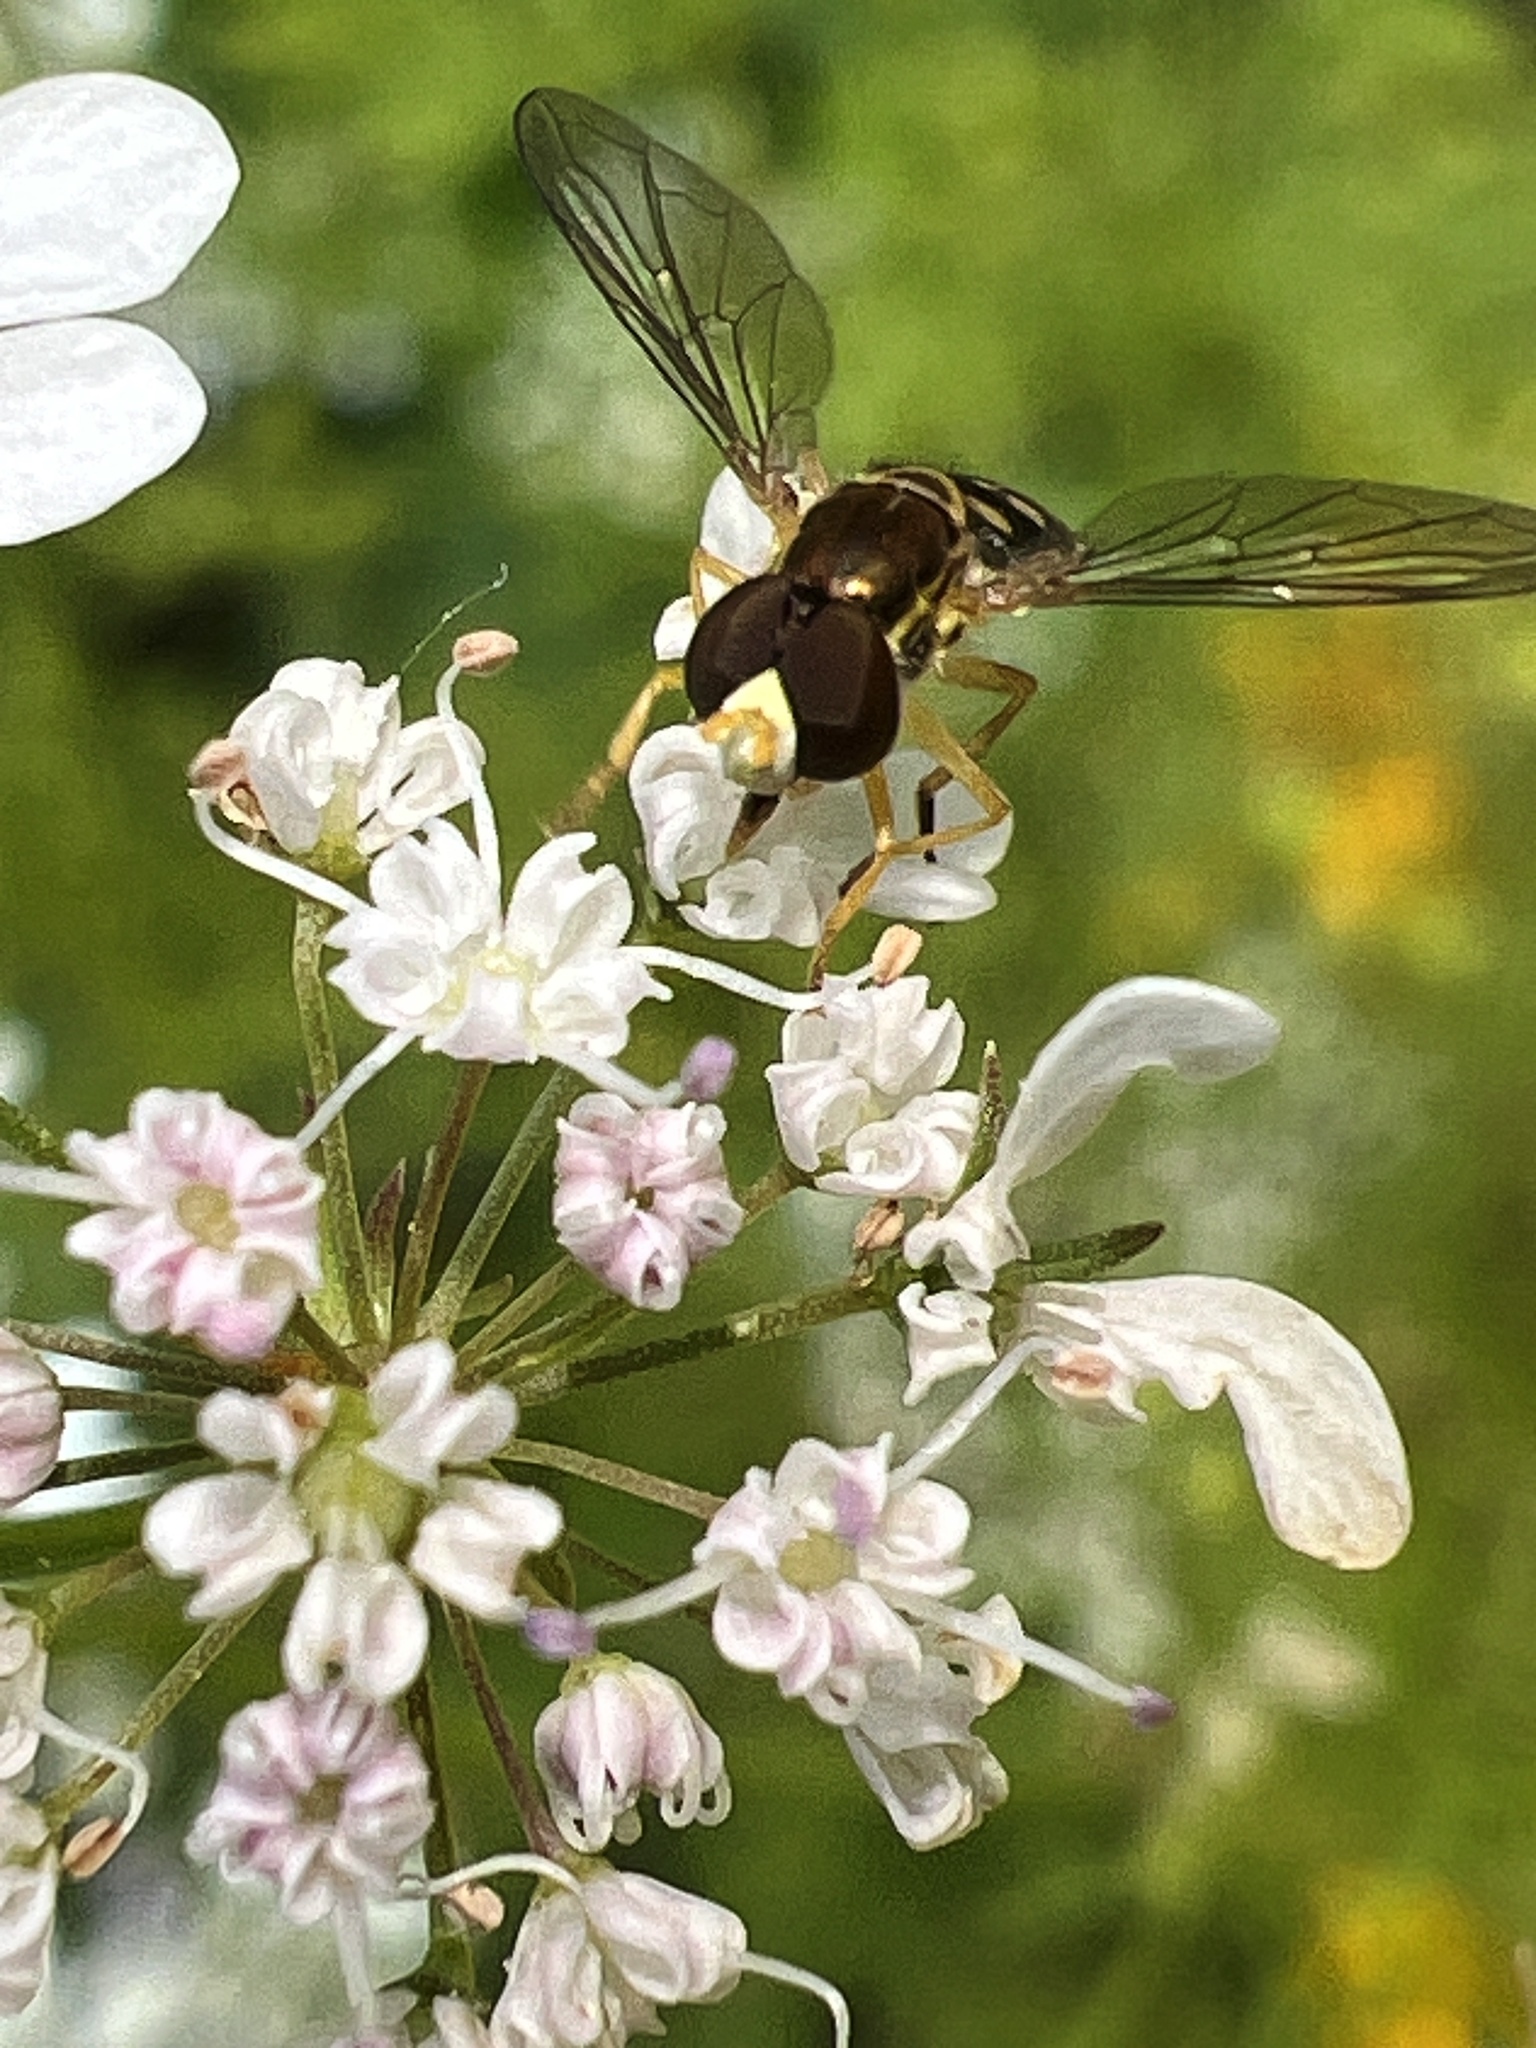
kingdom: Animalia
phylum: Arthropoda
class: Insecta
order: Diptera
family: Syrphidae
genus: Toxomerus
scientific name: Toxomerus marginatus
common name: Syrphid fly
